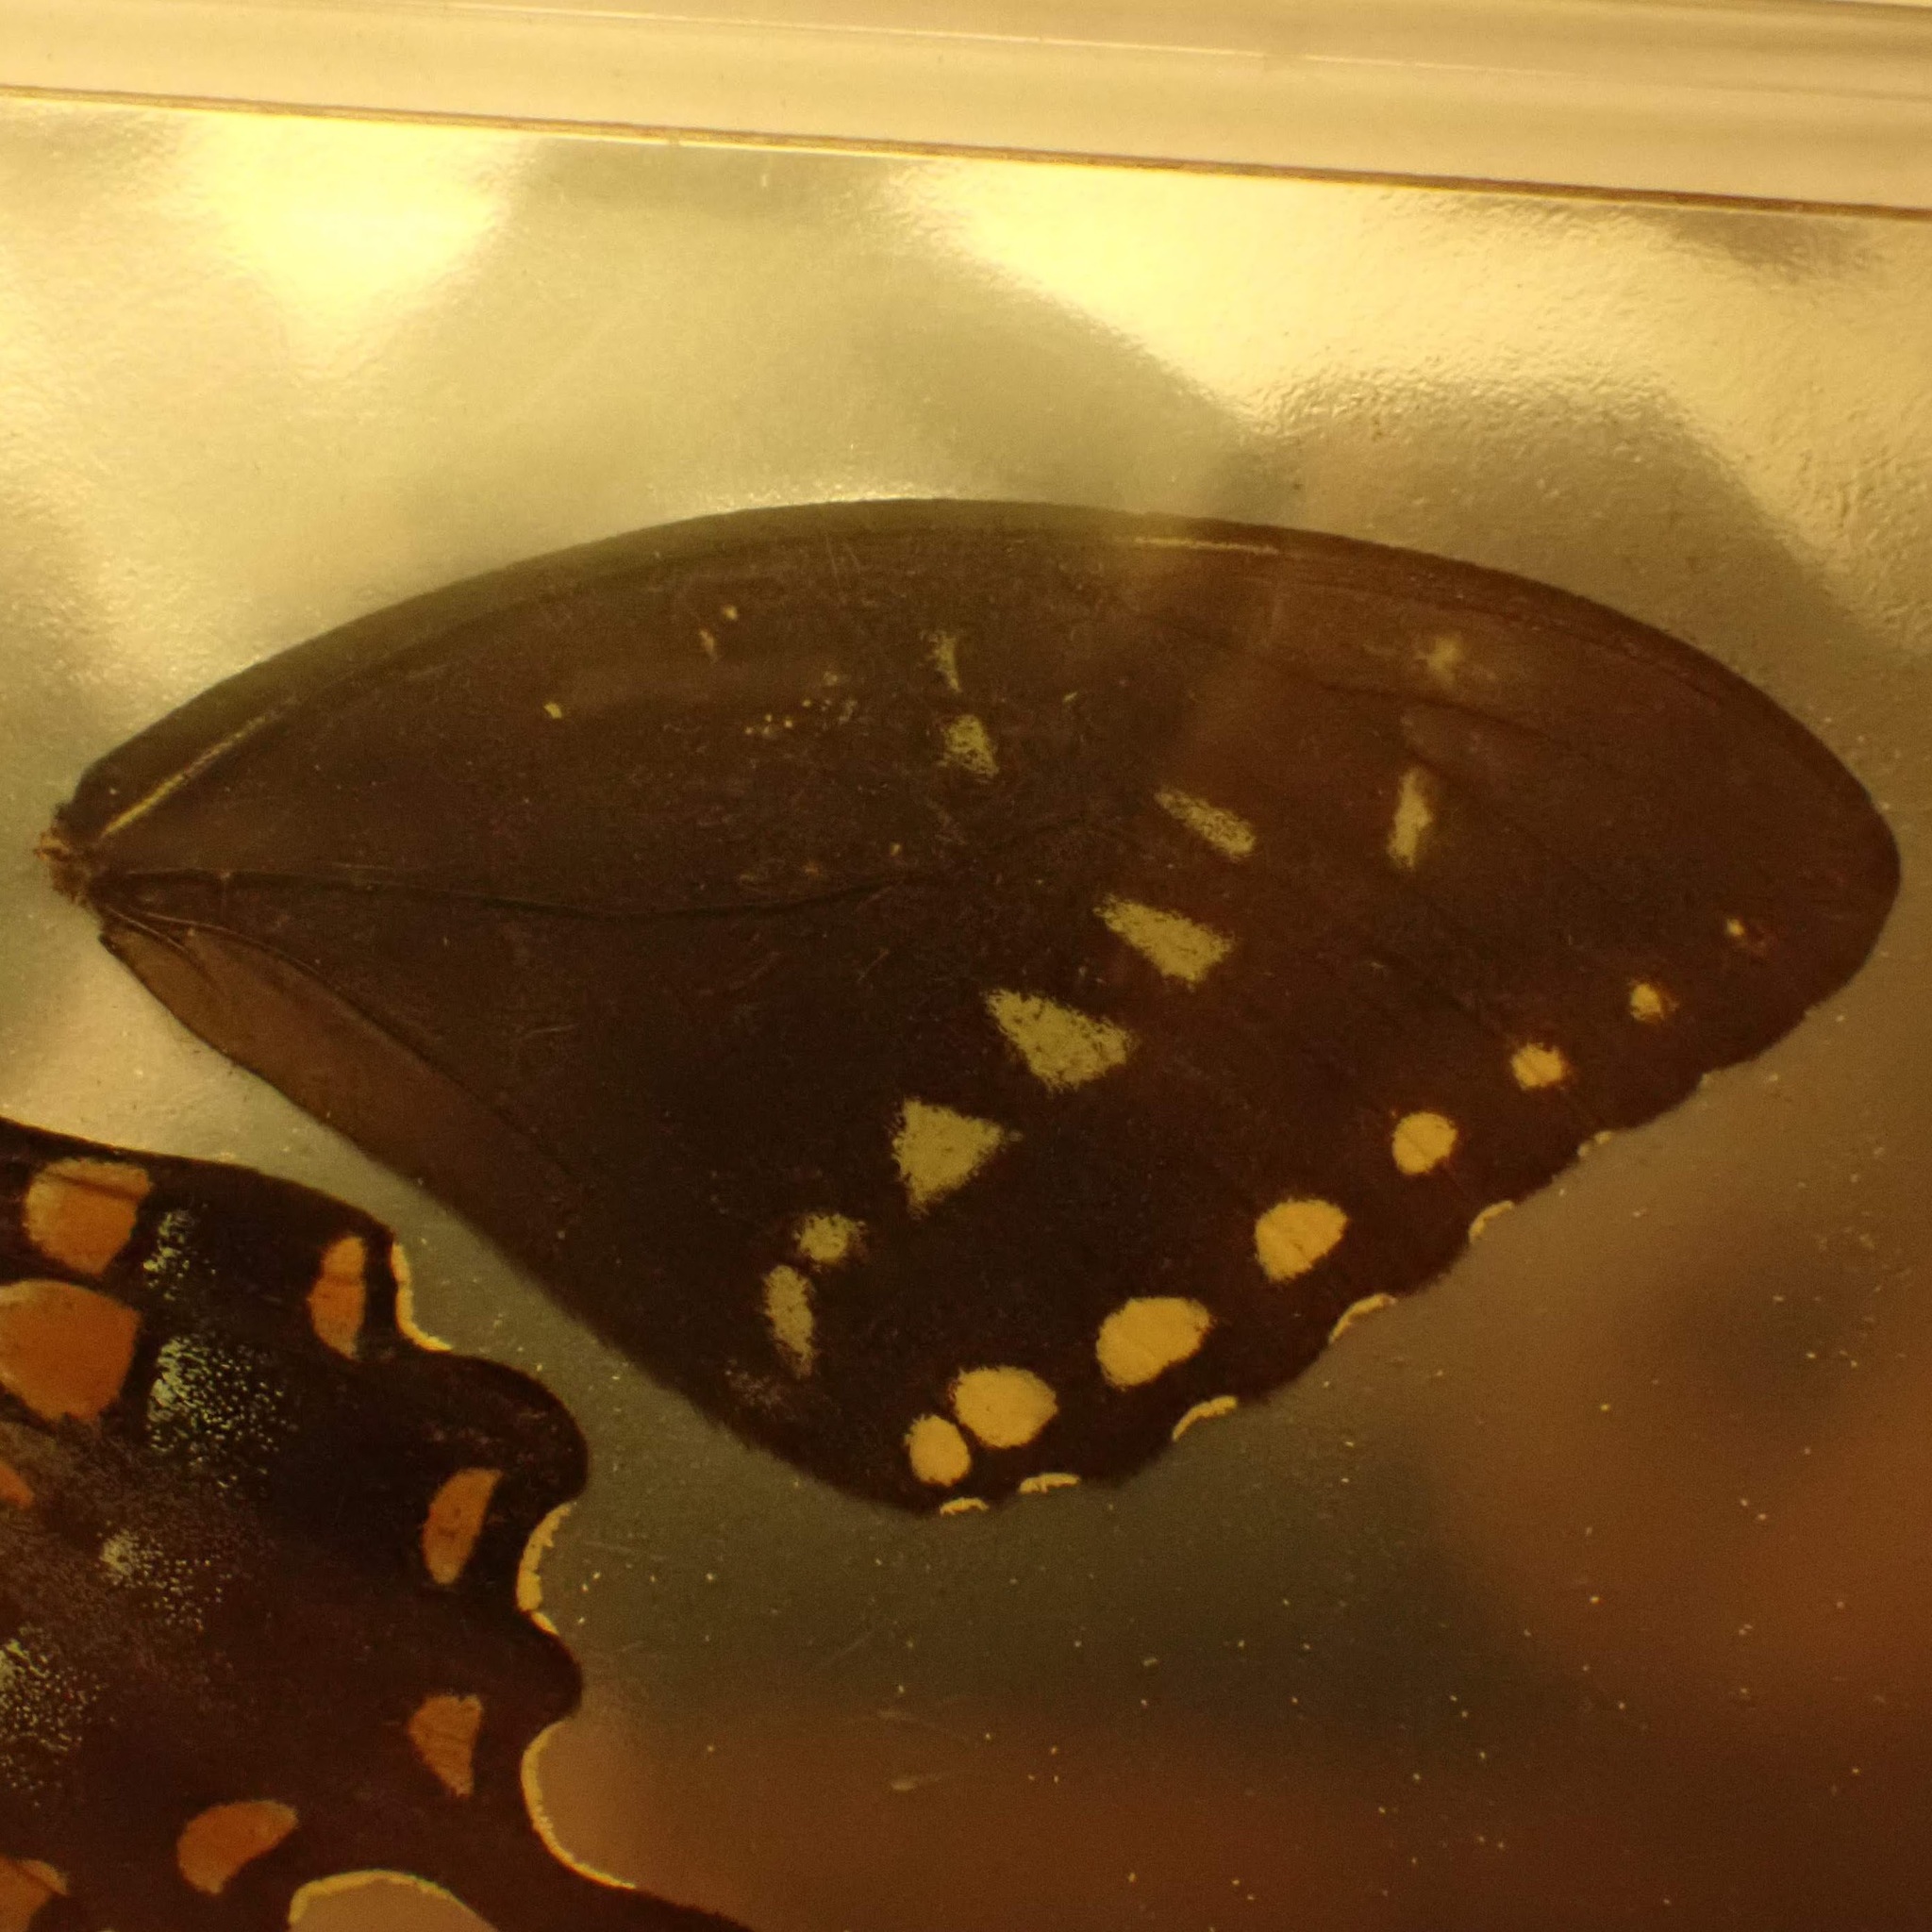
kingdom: Animalia
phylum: Arthropoda
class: Insecta
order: Lepidoptera
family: Papilionidae
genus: Papilio
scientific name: Papilio troilus
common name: Spicebush swallowtail
